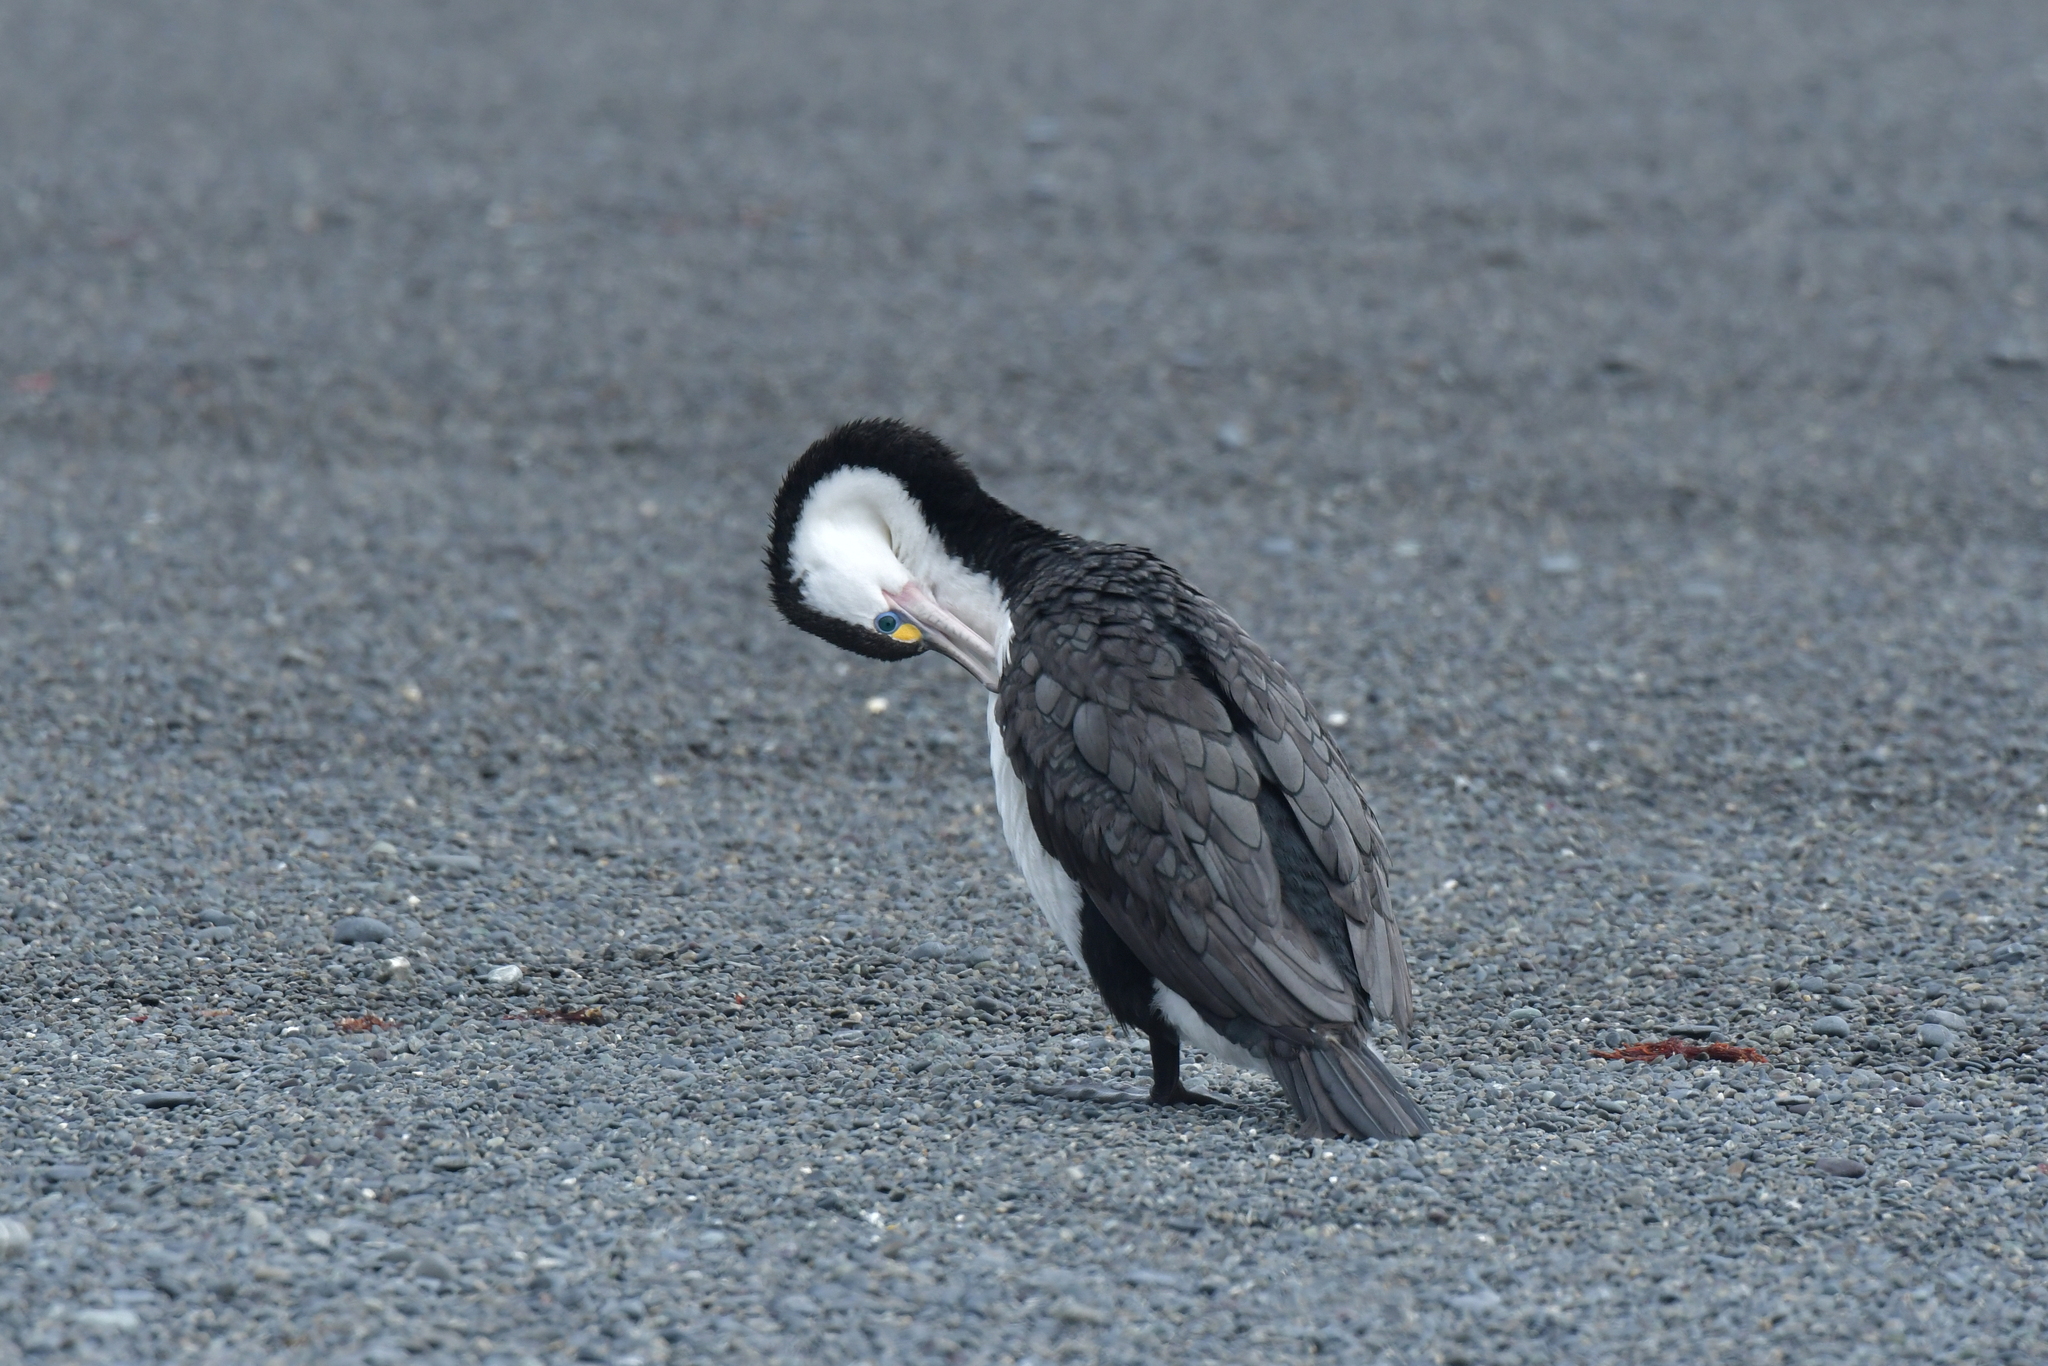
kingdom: Animalia
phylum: Chordata
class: Aves
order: Suliformes
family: Phalacrocoracidae
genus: Phalacrocorax
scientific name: Phalacrocorax varius
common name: Pied cormorant
